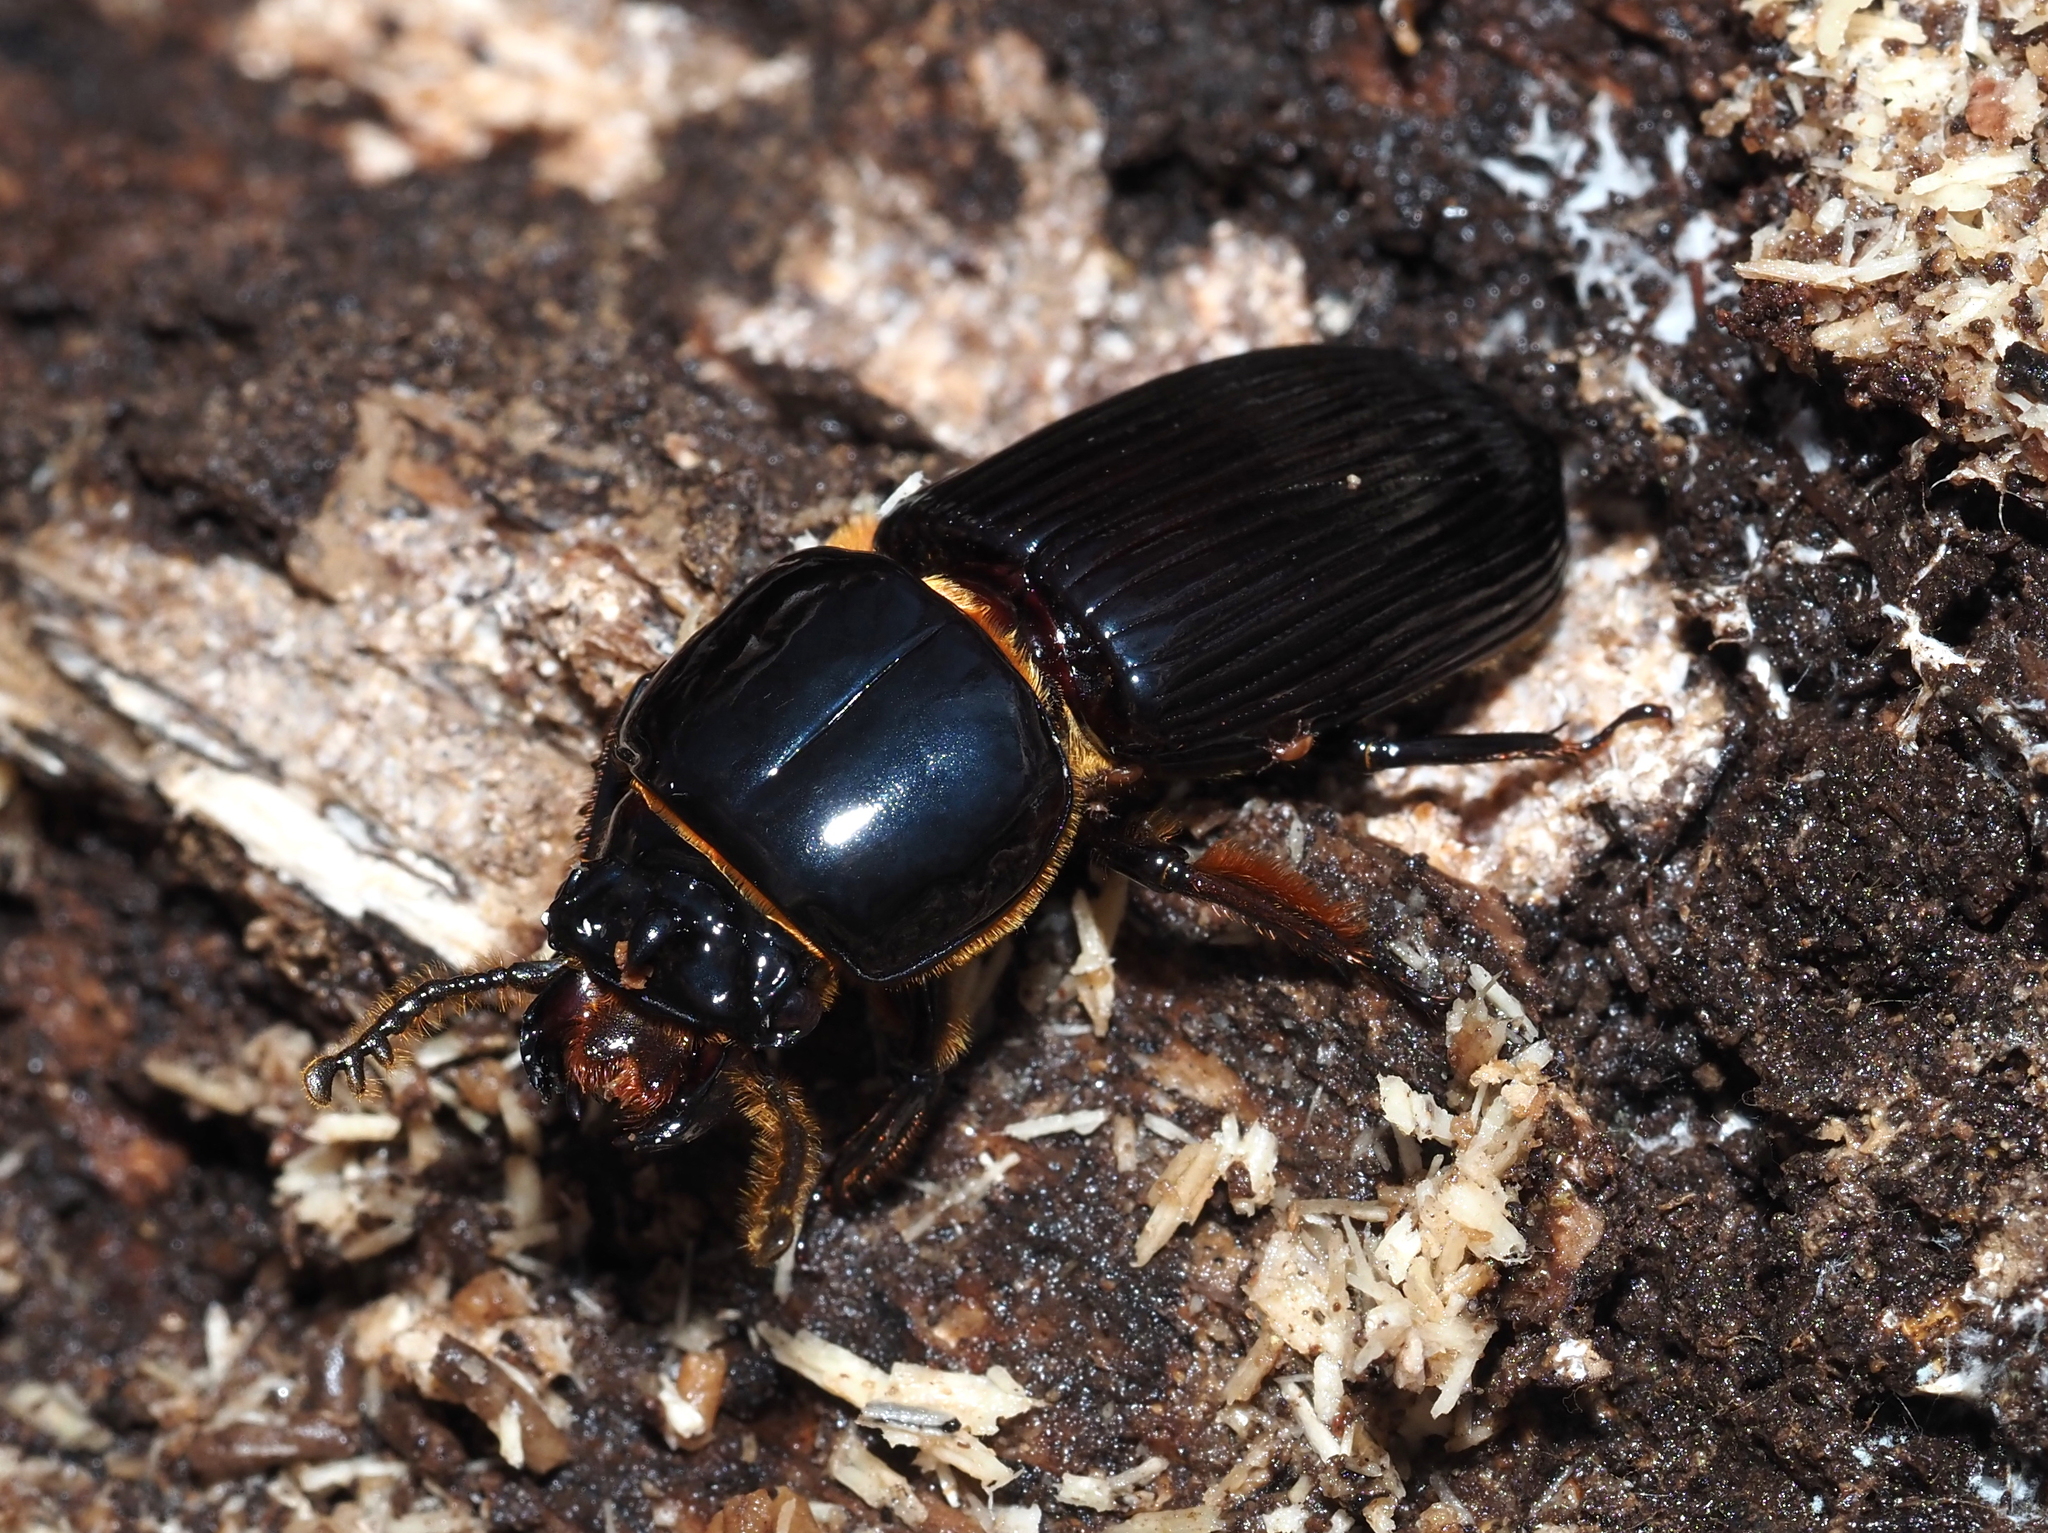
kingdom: Animalia
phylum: Arthropoda
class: Insecta
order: Coleoptera
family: Passalidae
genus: Odontotaenius
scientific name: Odontotaenius disjunctus
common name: Patent leather beetle
